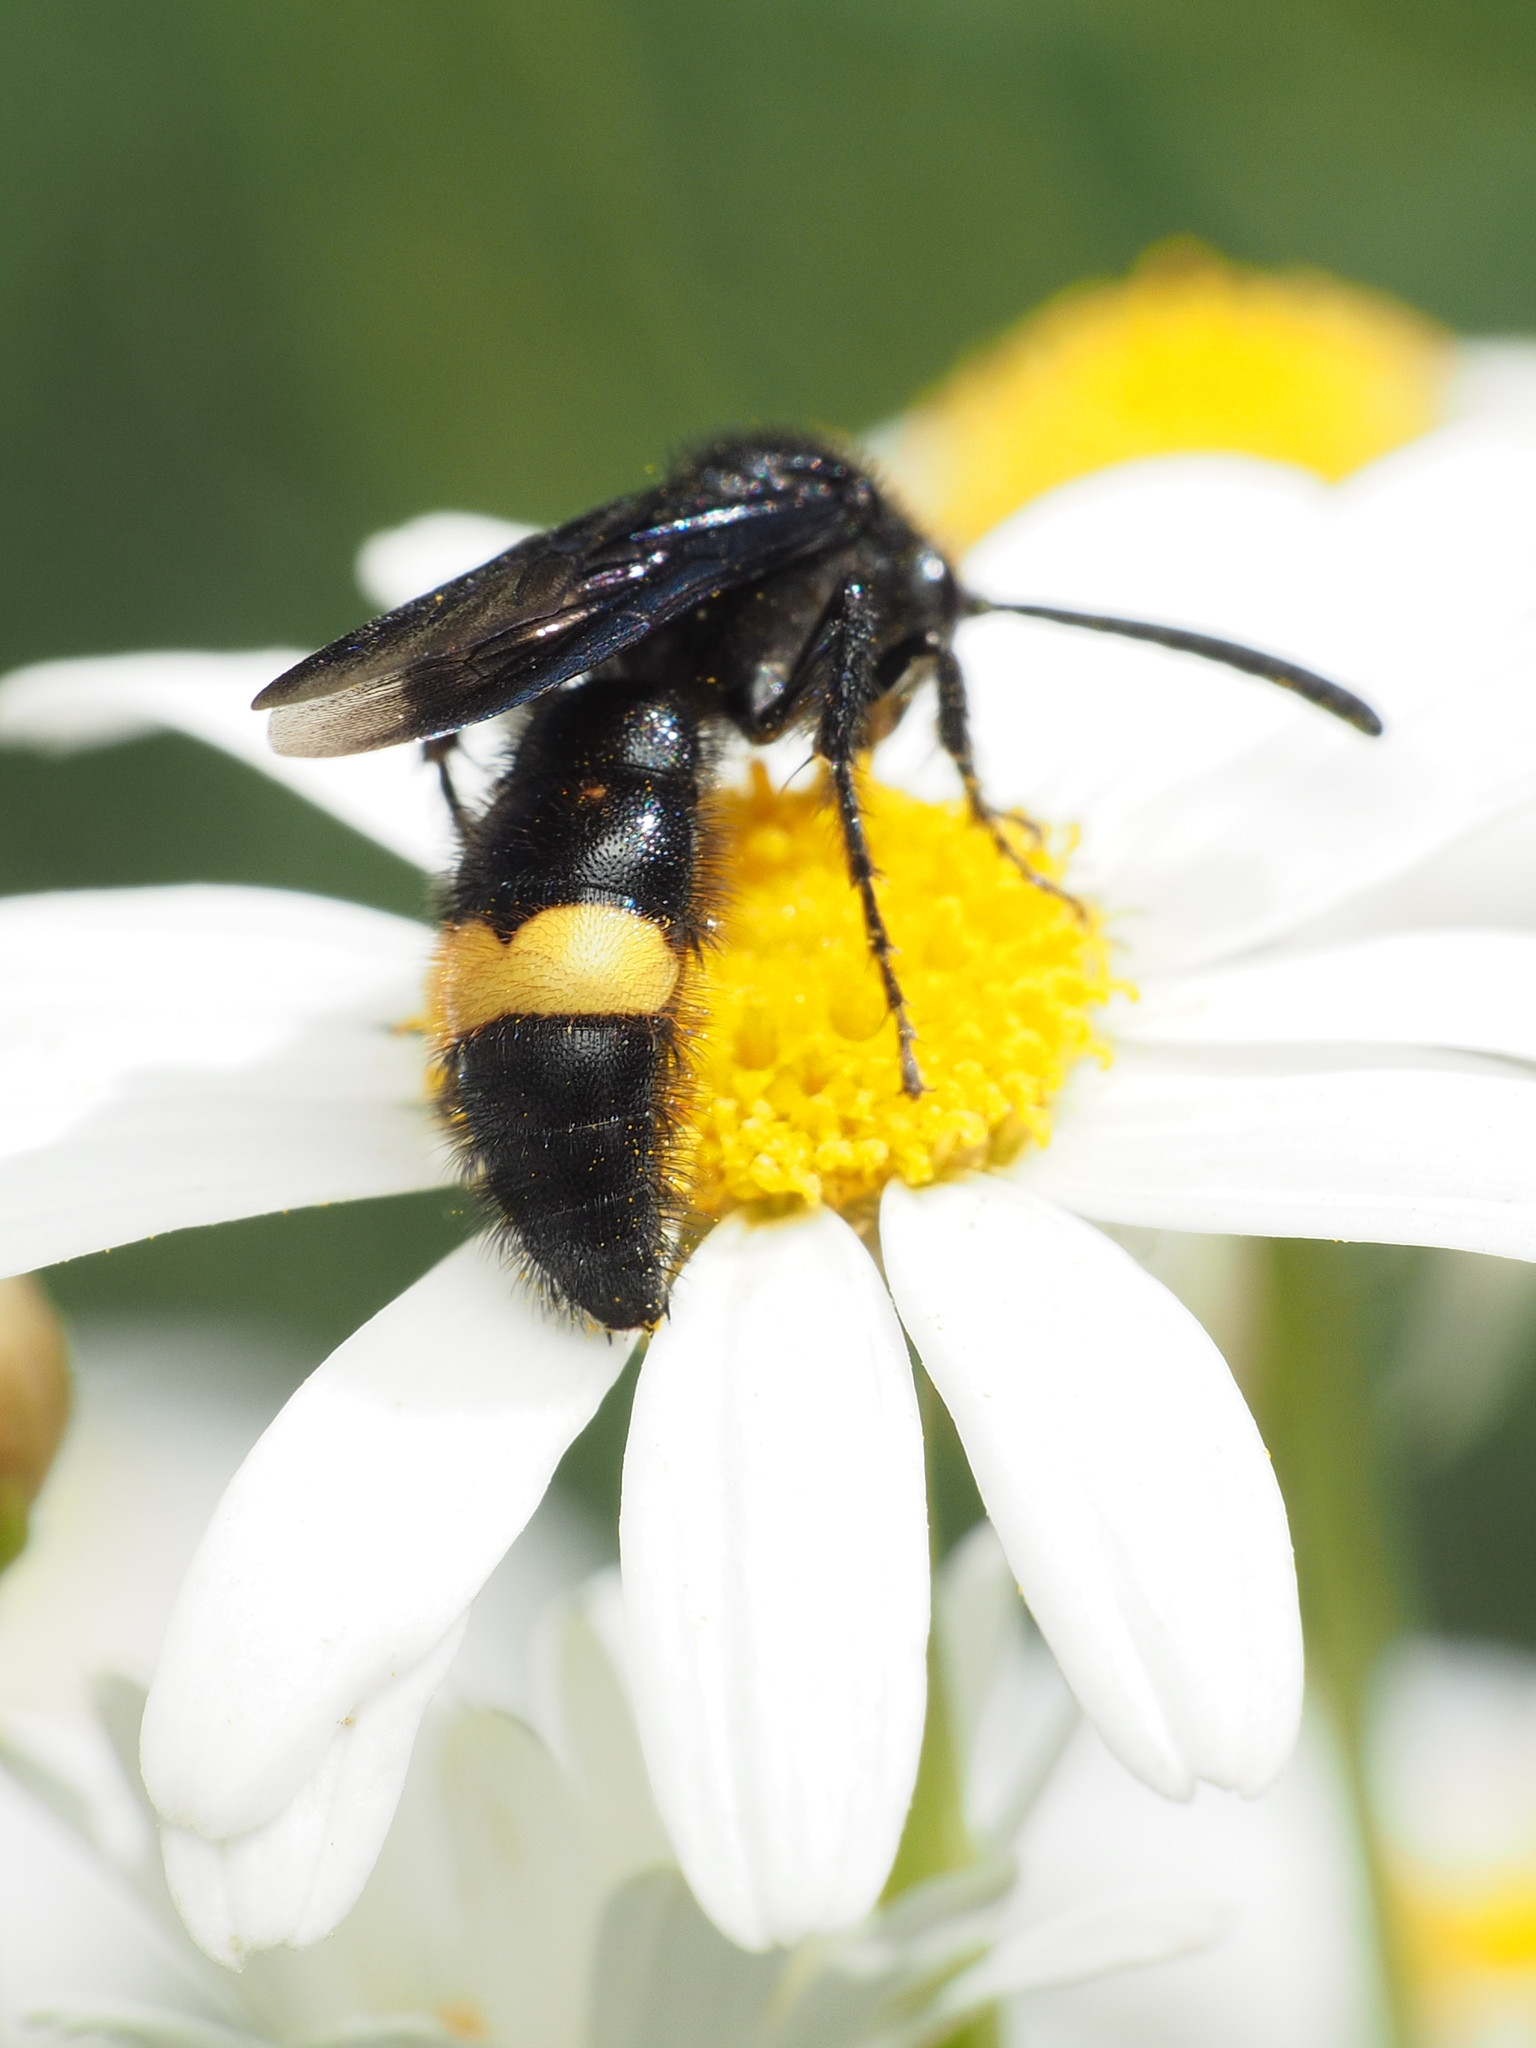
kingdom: Animalia
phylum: Arthropoda
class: Insecta
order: Hymenoptera
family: Scoliidae
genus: Scolia
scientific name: Scolia hirta
